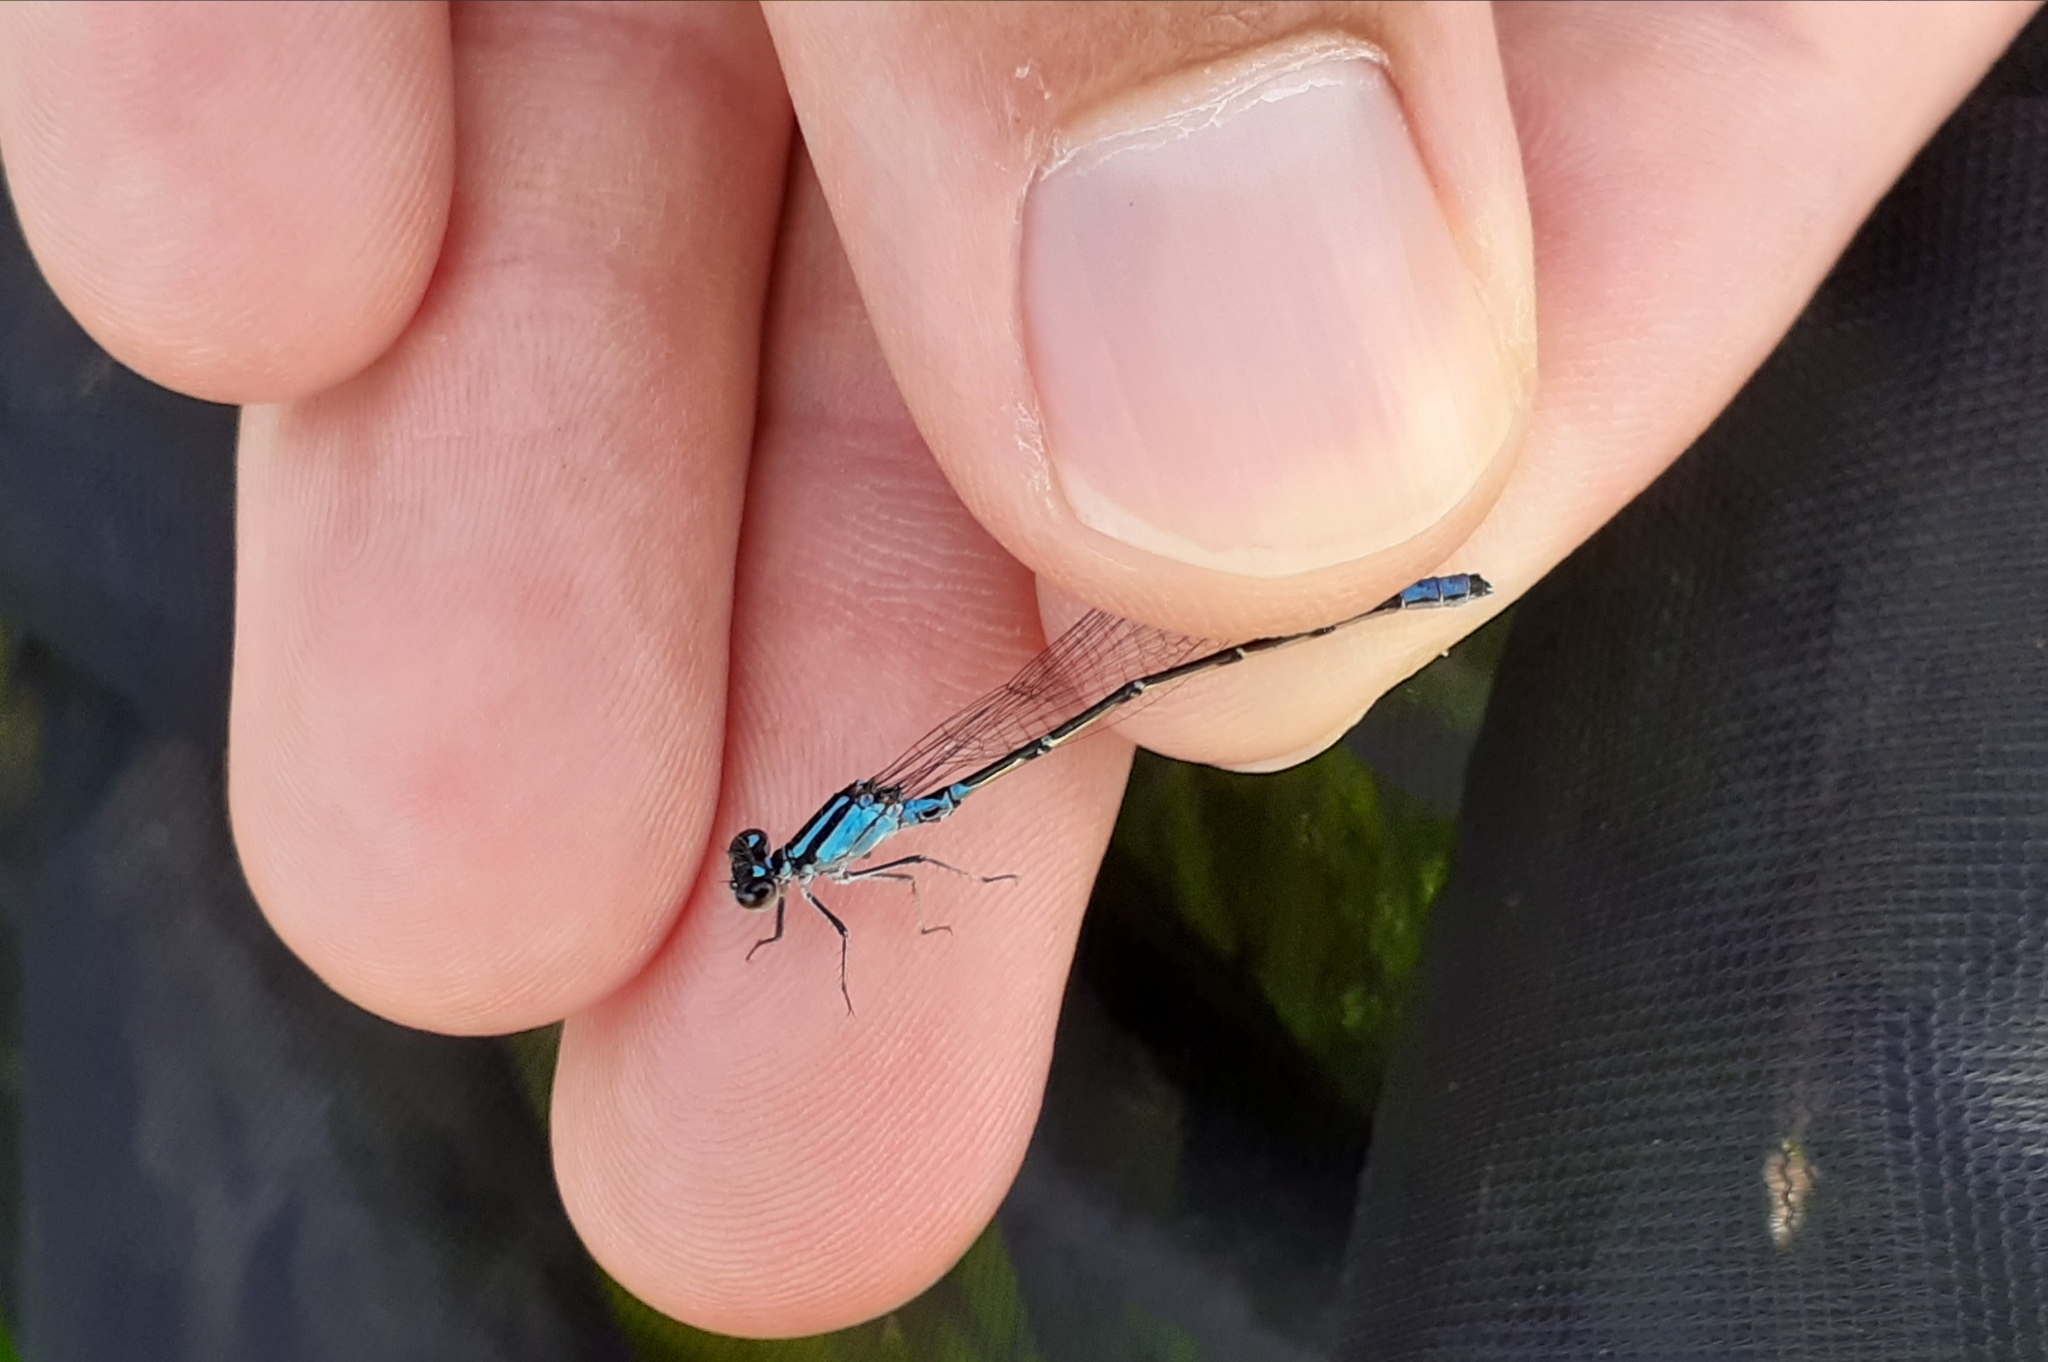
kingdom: Animalia
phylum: Arthropoda
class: Insecta
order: Odonata
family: Coenagrionidae
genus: Enallagma
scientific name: Enallagma geminatum
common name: Skimming bluet
